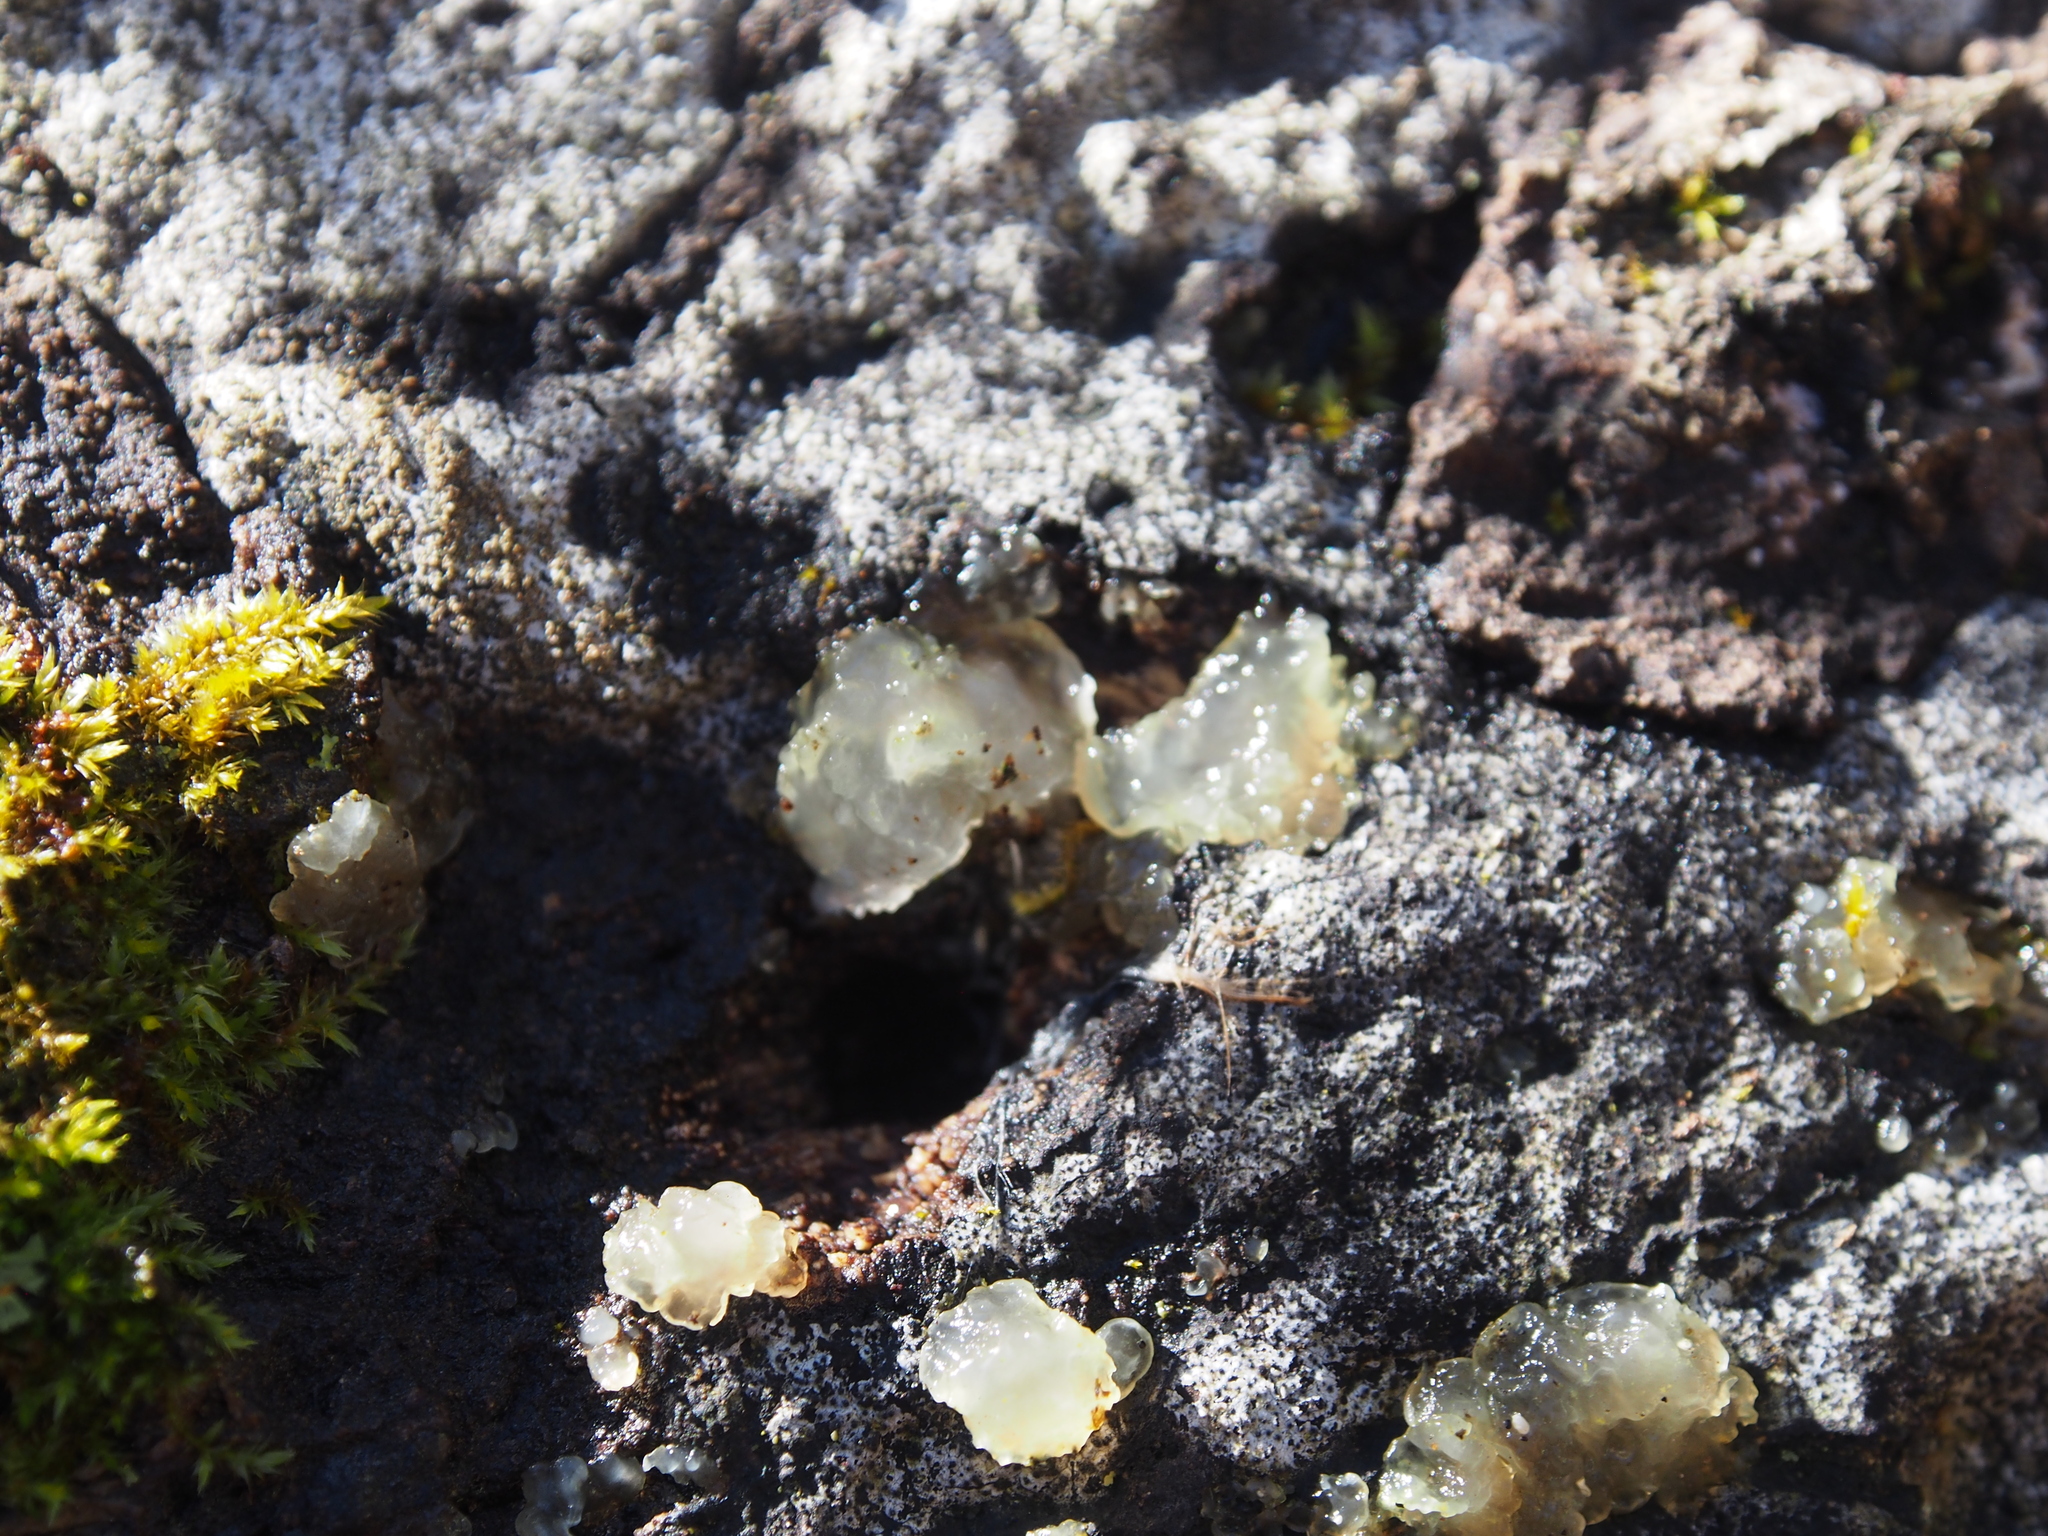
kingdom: Fungi
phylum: Basidiomycota
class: Agaricomycetes
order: Auriculariales
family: Hyaloriaceae
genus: Myxarium
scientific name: Myxarium nucleatum
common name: Crystal brain fungus
